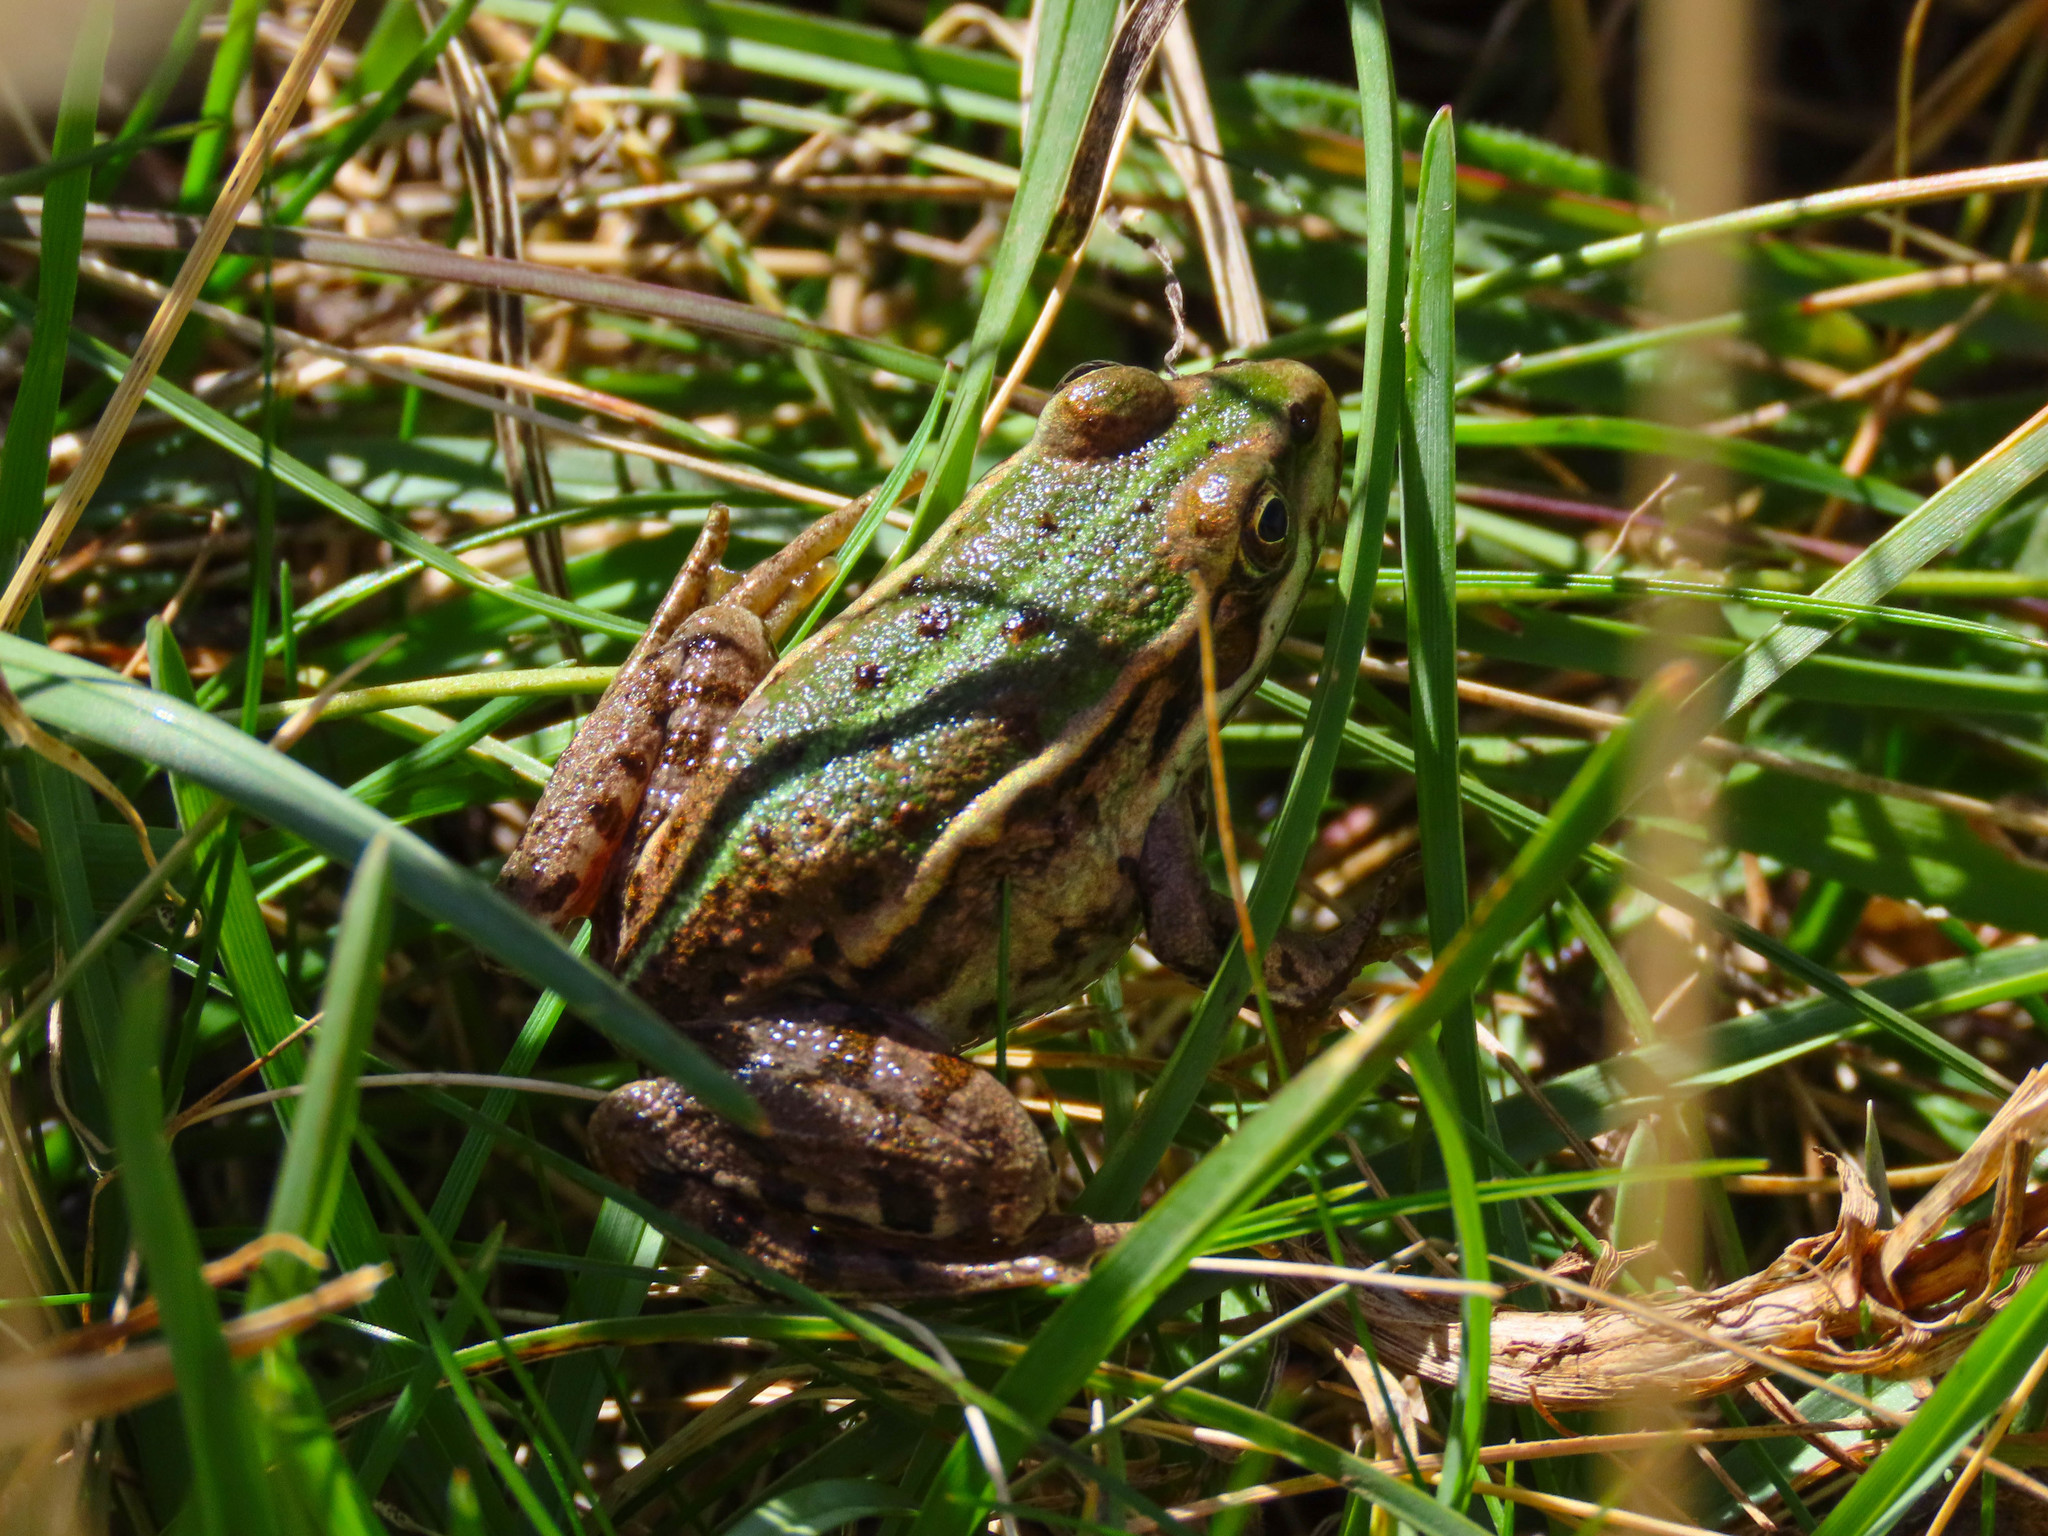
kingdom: Animalia
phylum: Chordata
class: Amphibia
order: Anura
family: Ranidae
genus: Pelophylax
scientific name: Pelophylax
